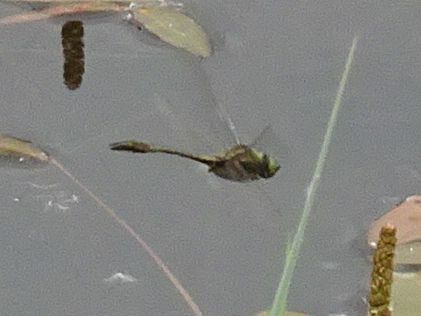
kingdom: Animalia
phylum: Arthropoda
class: Insecta
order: Odonata
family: Corduliidae
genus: Cordulia
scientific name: Cordulia aenea
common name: Downy emerald
